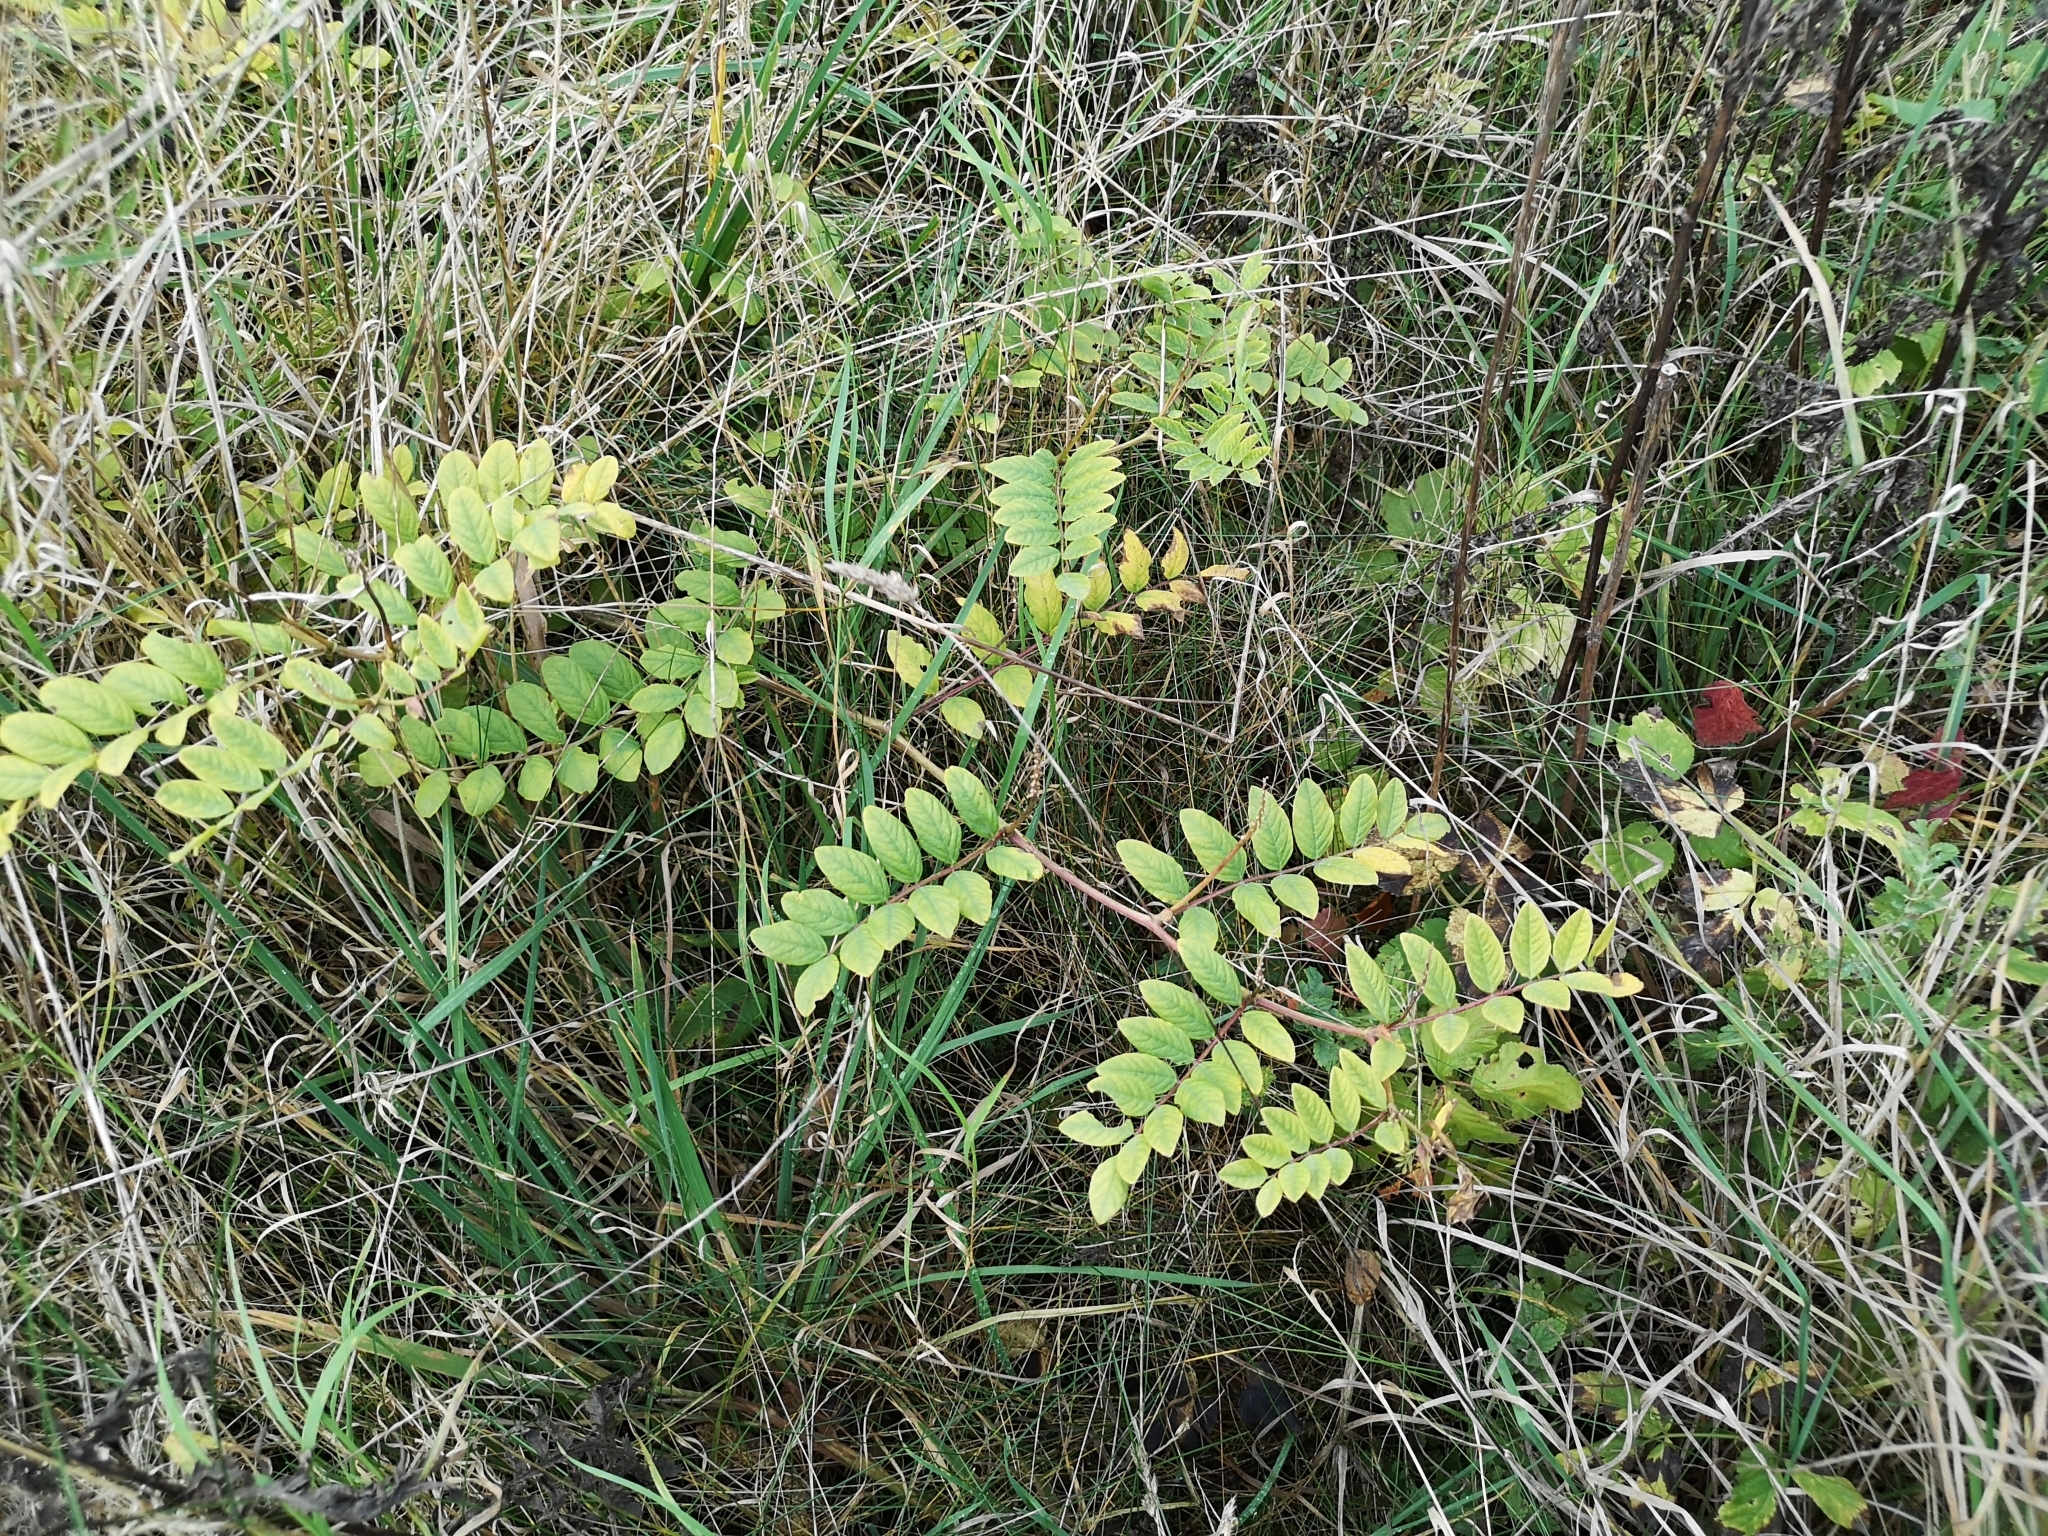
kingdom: Plantae
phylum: Tracheophyta
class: Magnoliopsida
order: Fabales
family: Fabaceae
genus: Astragalus
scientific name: Astragalus glycyphyllos
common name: Wild liquorice
